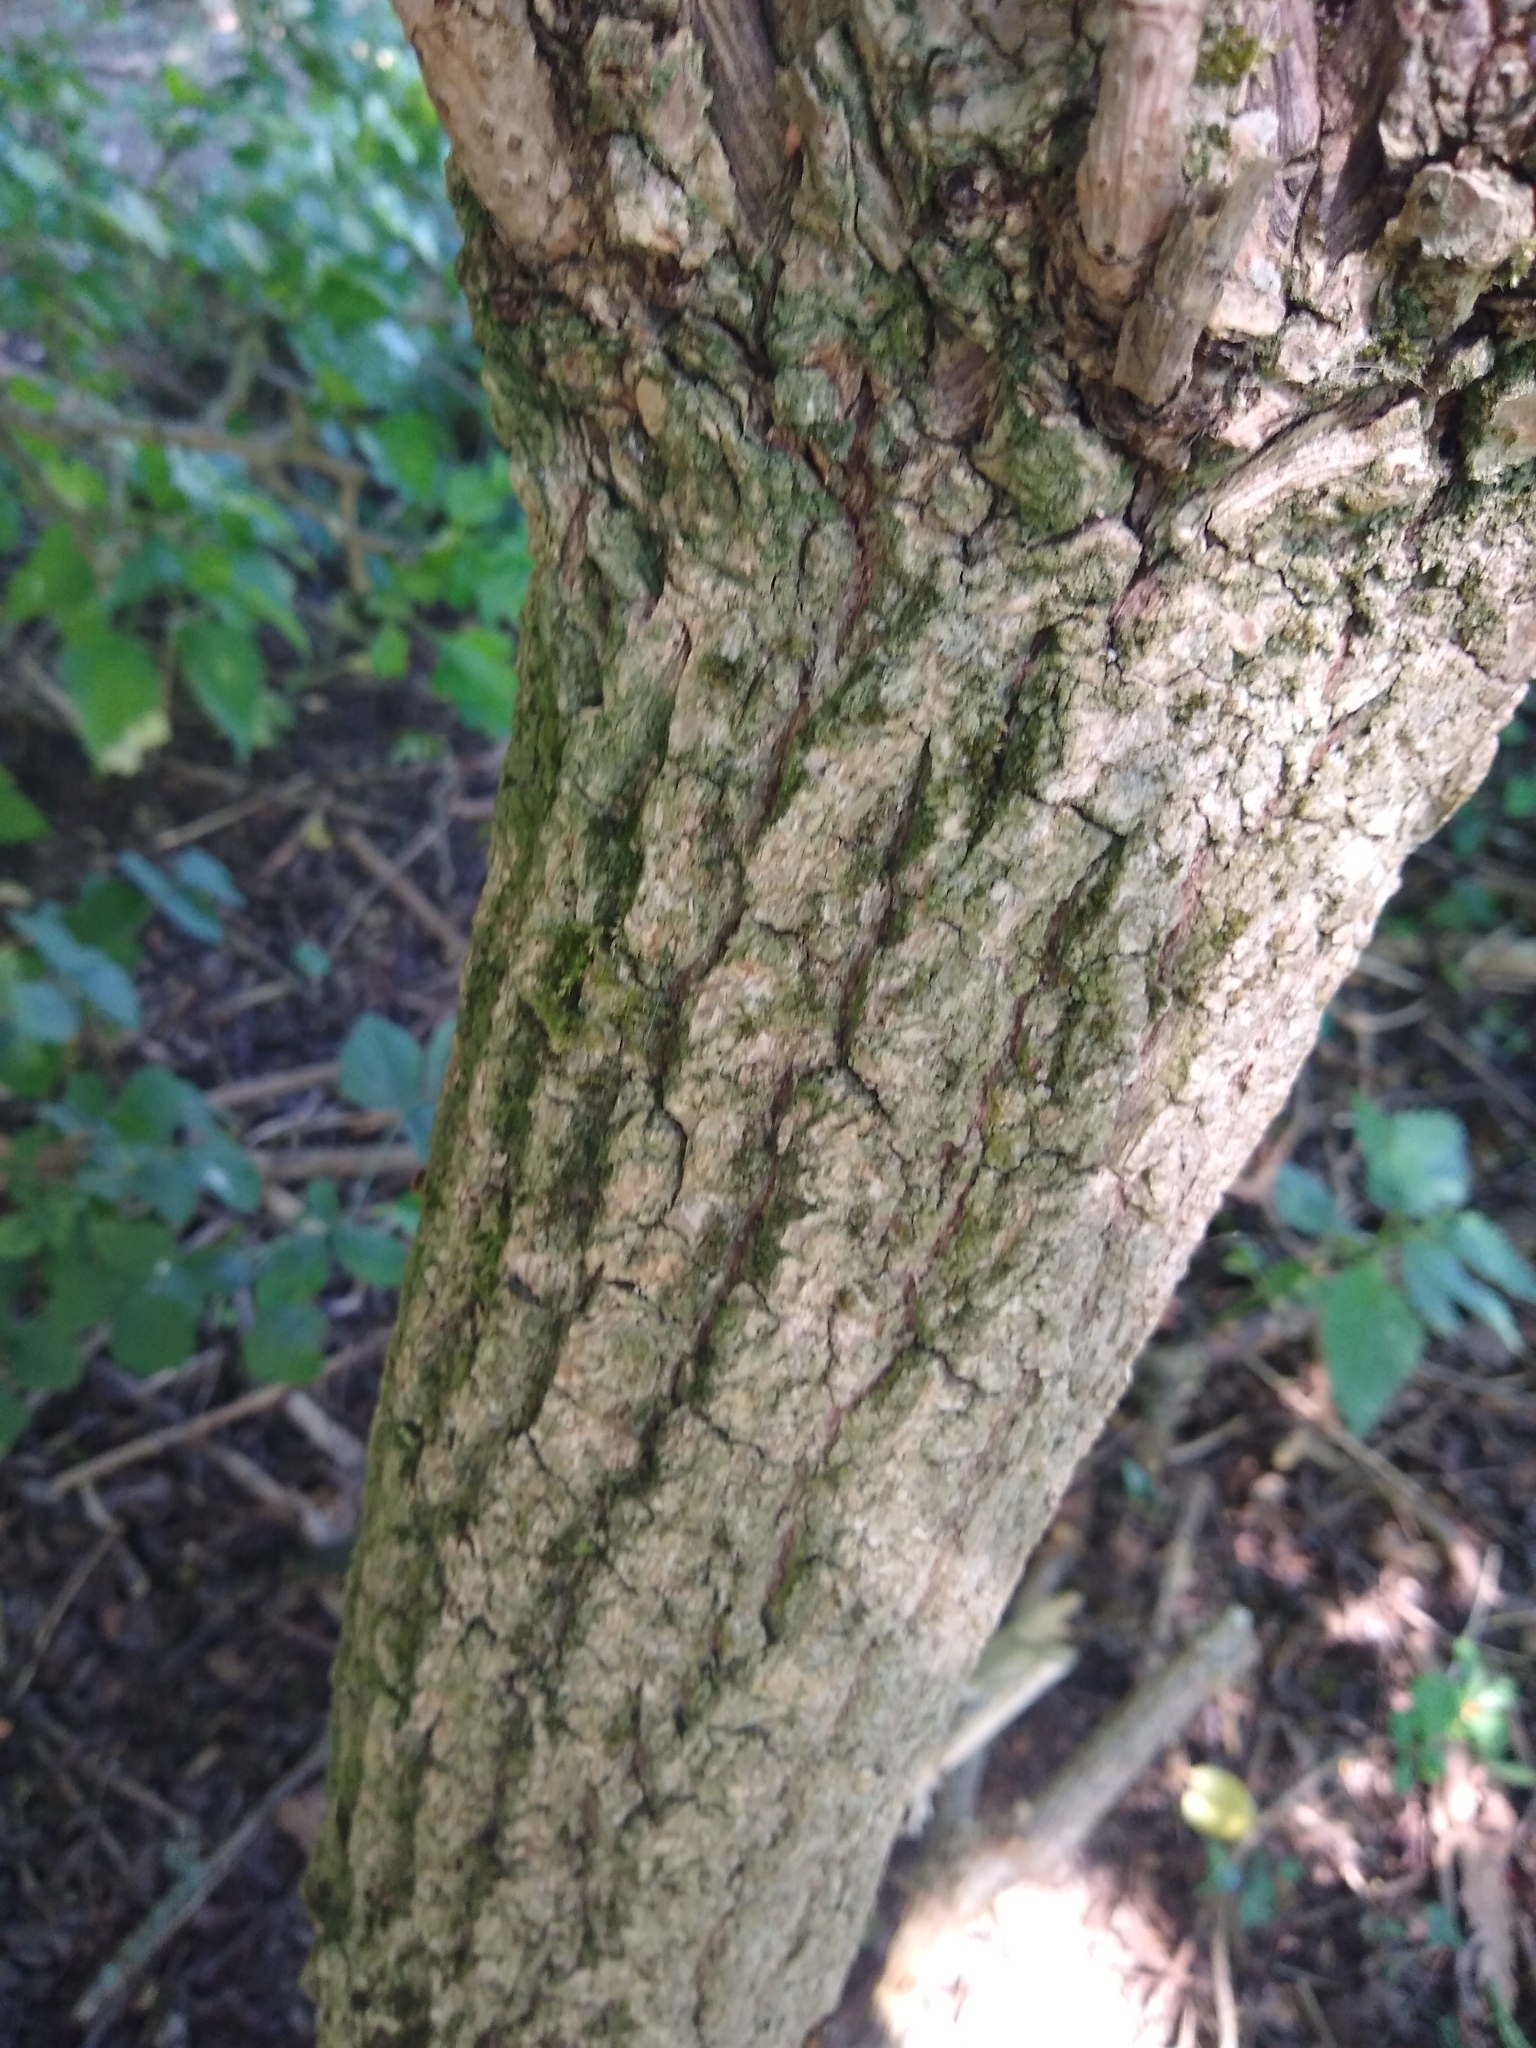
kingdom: Plantae
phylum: Tracheophyta
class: Magnoliopsida
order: Dipsacales
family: Viburnaceae
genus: Sambucus
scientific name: Sambucus nigra
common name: Elder
